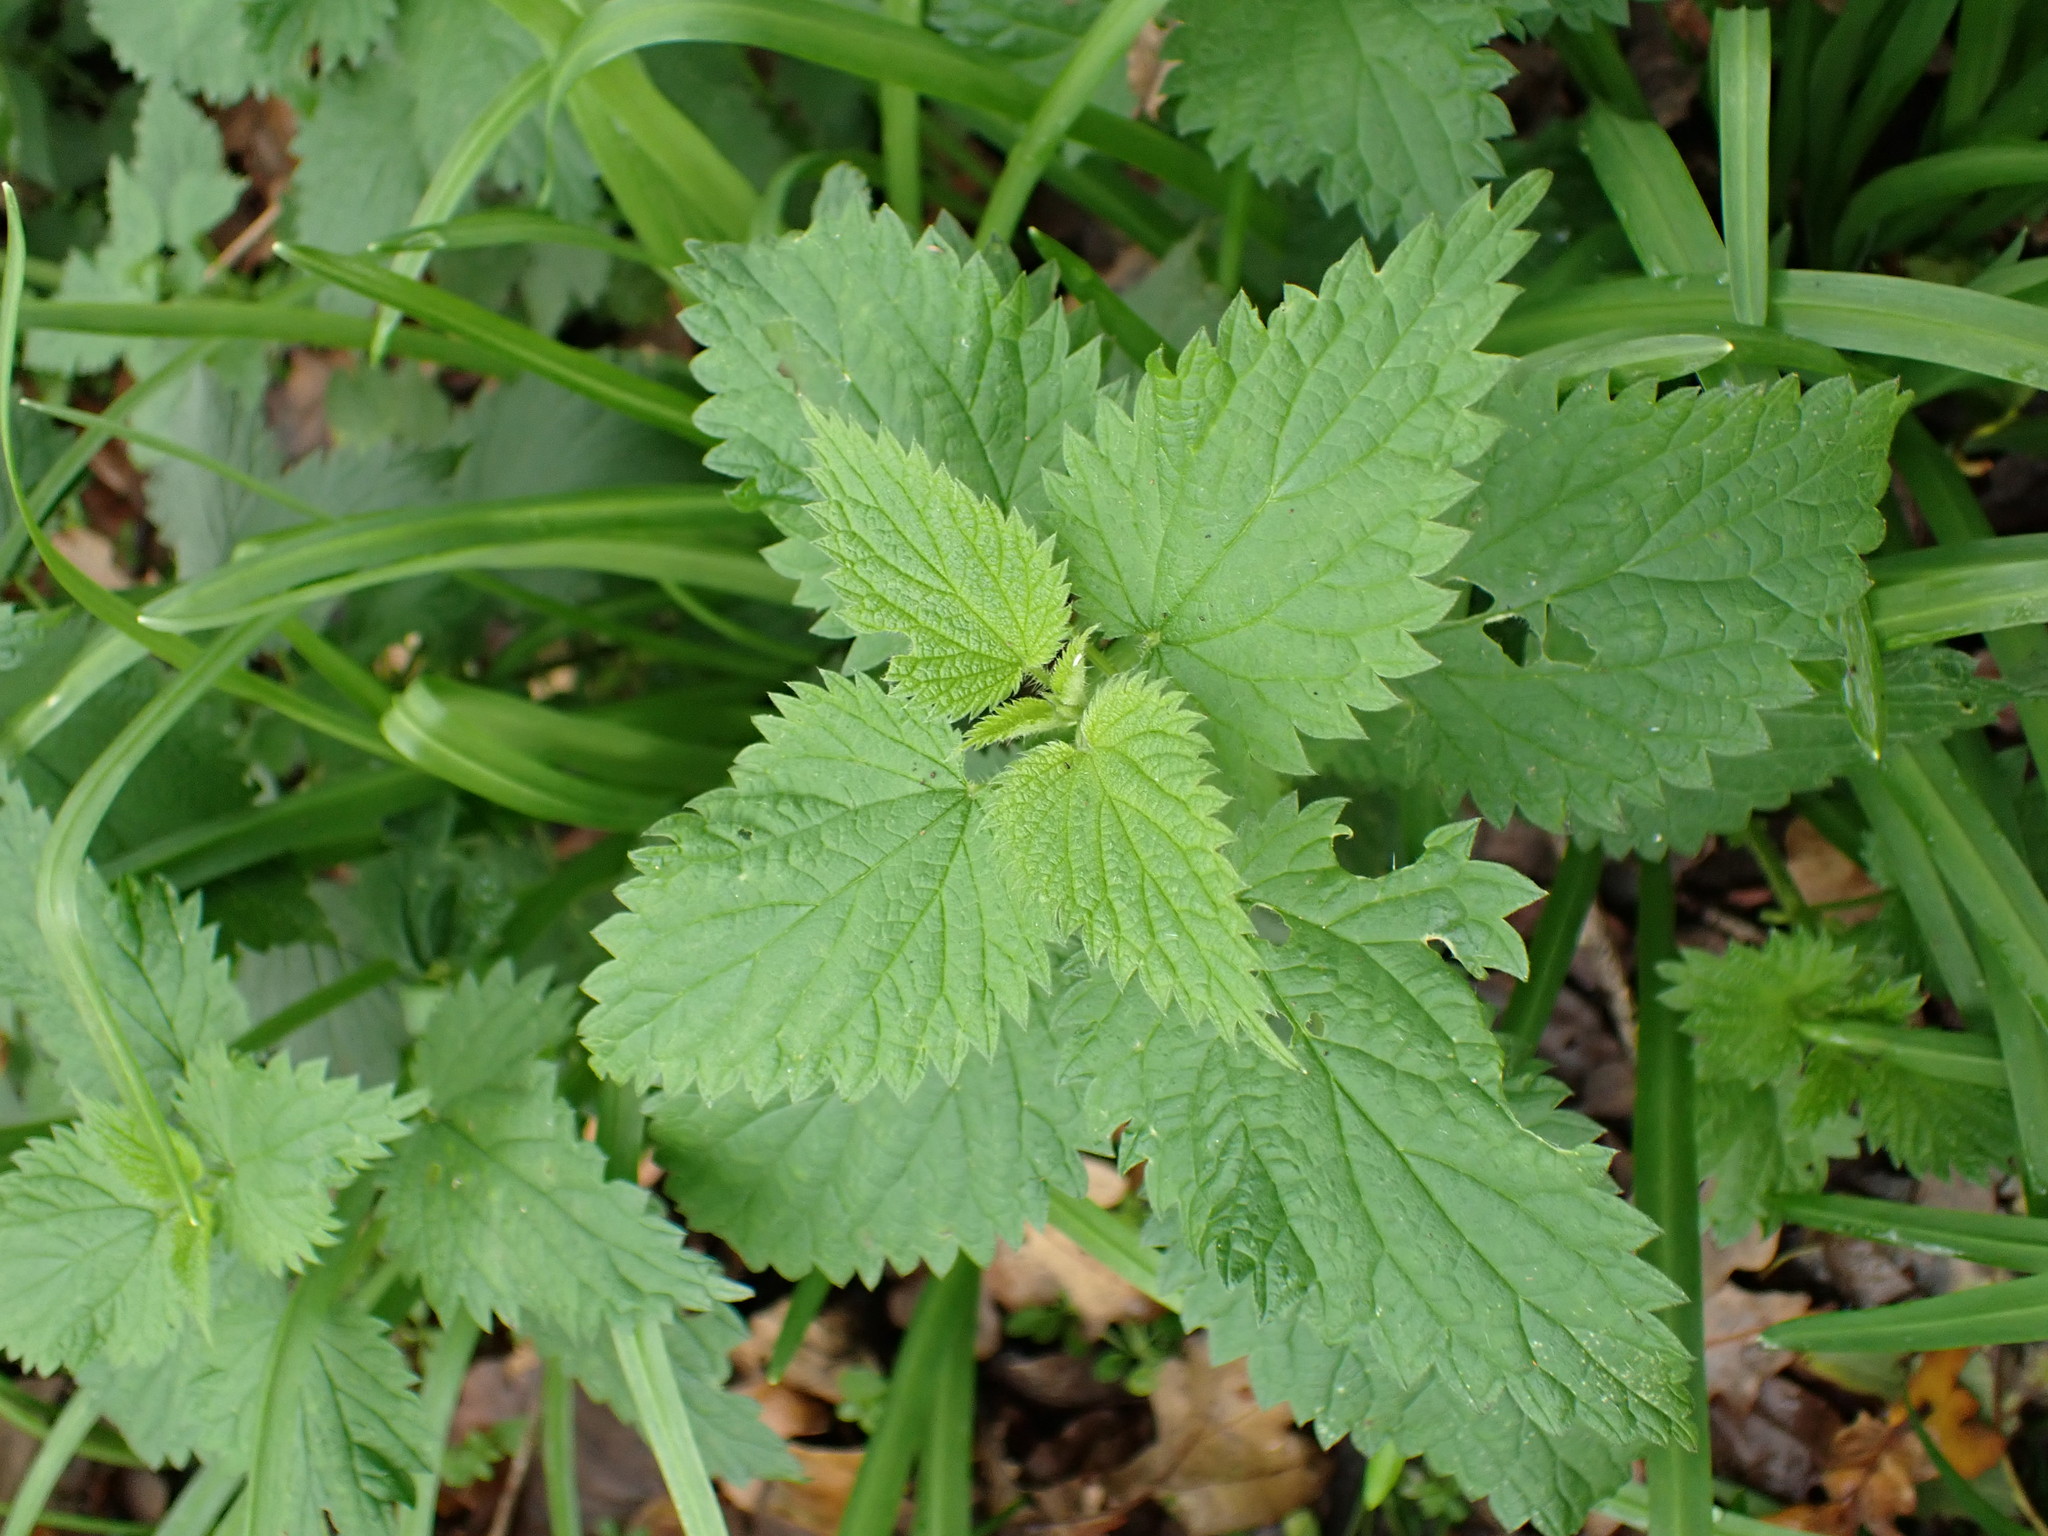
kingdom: Plantae
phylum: Tracheophyta
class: Magnoliopsida
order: Rosales
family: Urticaceae
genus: Urtica
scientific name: Urtica dioica
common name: Common nettle
